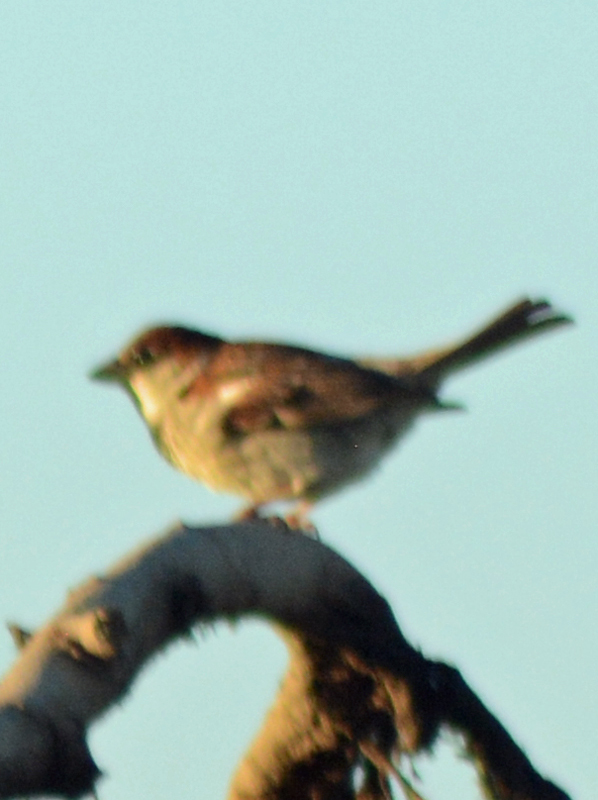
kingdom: Animalia
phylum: Chordata
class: Aves
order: Passeriformes
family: Passeridae
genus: Passer
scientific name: Passer domesticus
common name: House sparrow
